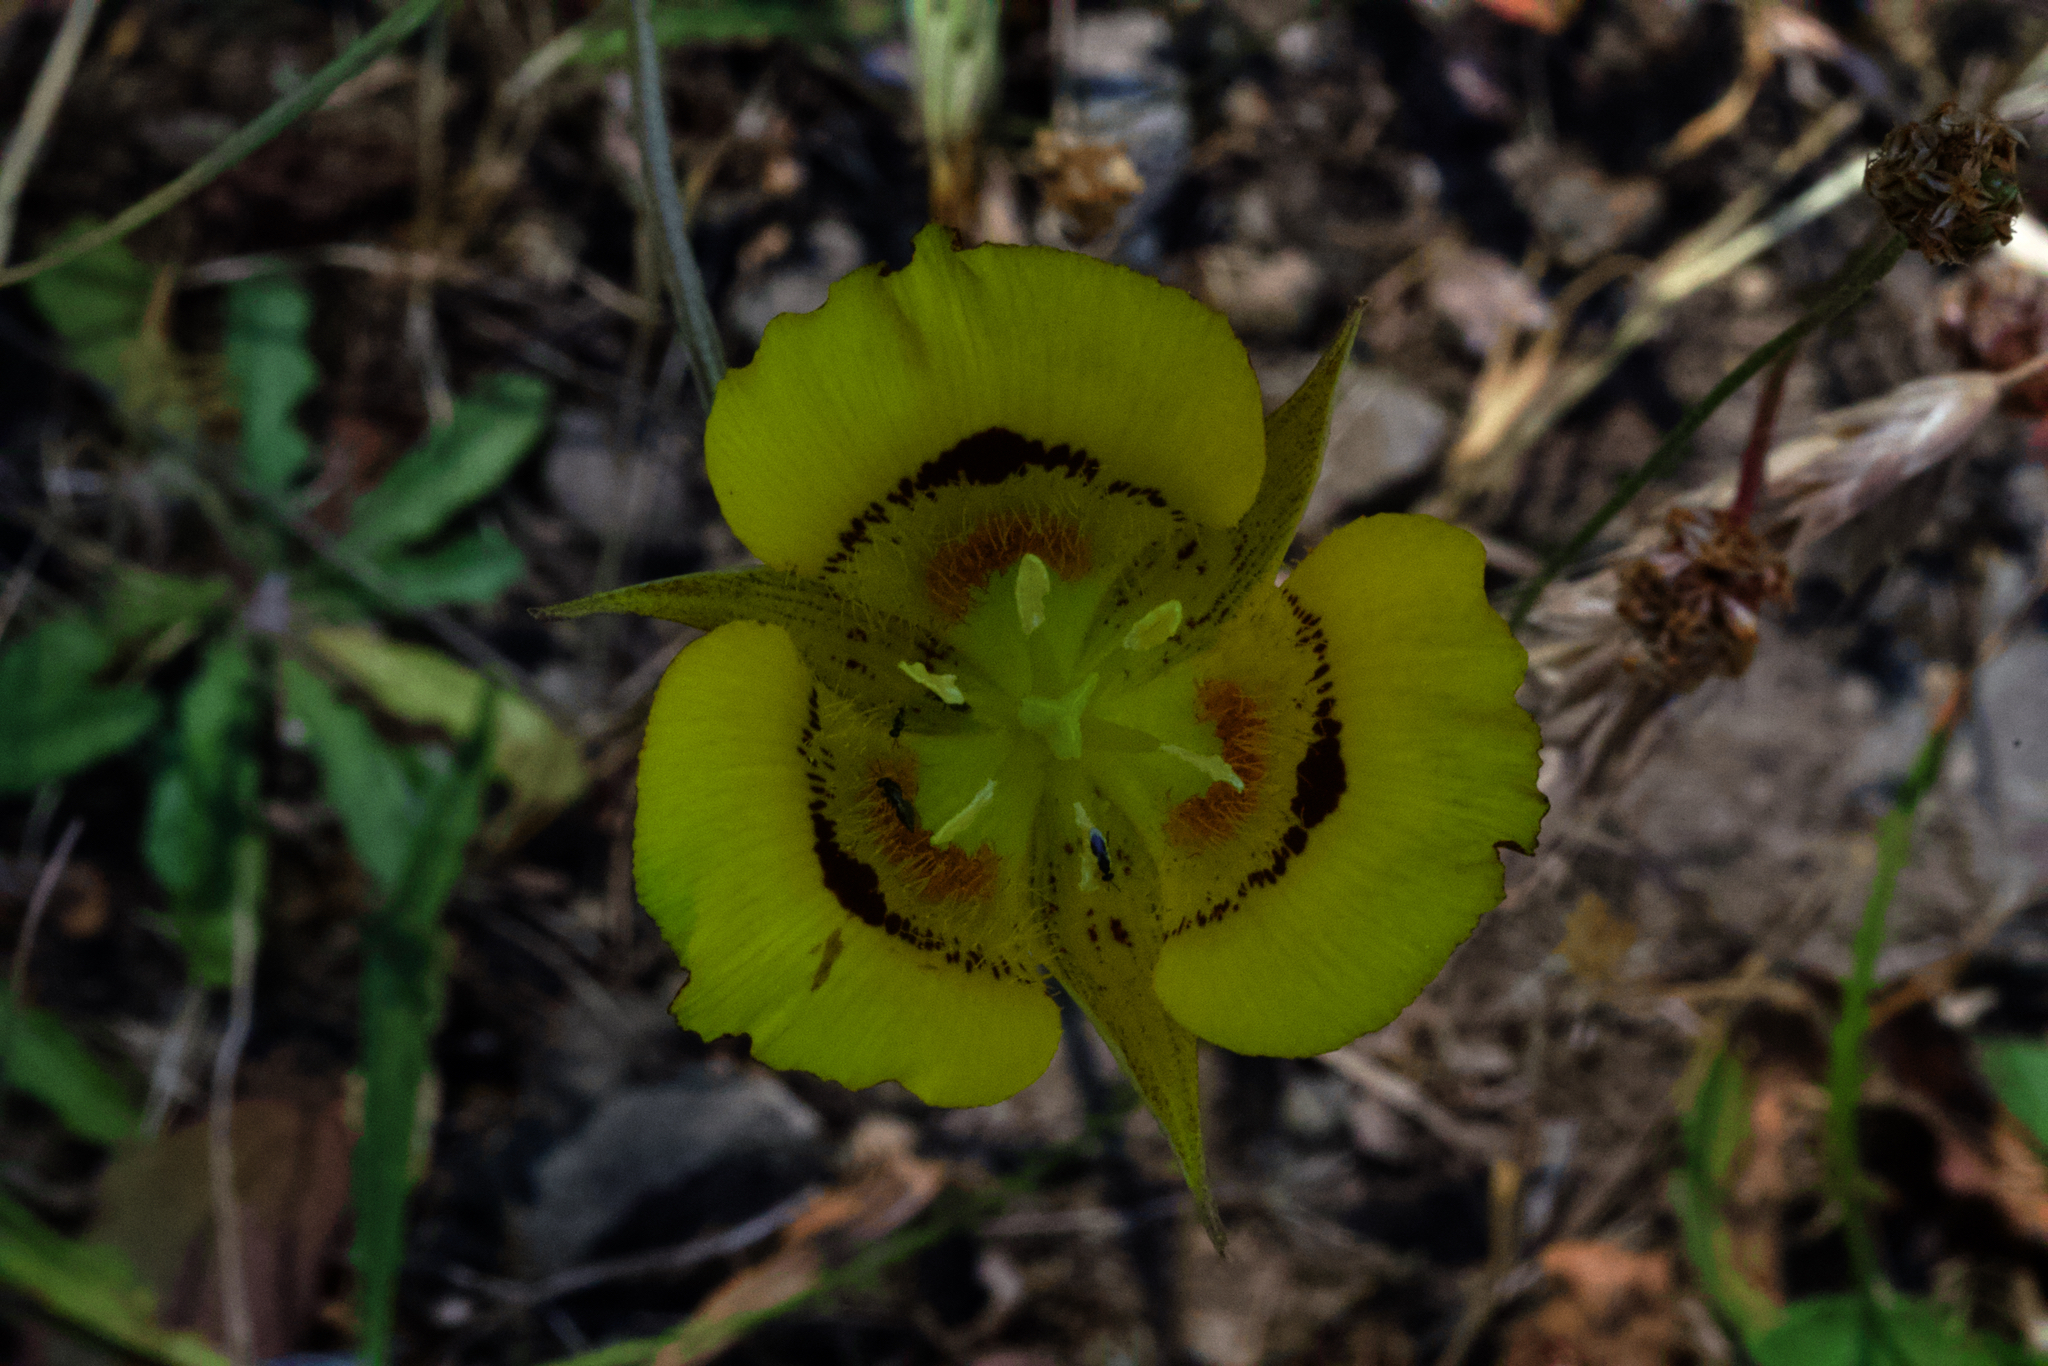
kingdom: Plantae
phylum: Tracheophyta
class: Liliopsida
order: Liliales
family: Liliaceae
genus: Calochortus
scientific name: Calochortus luteus
